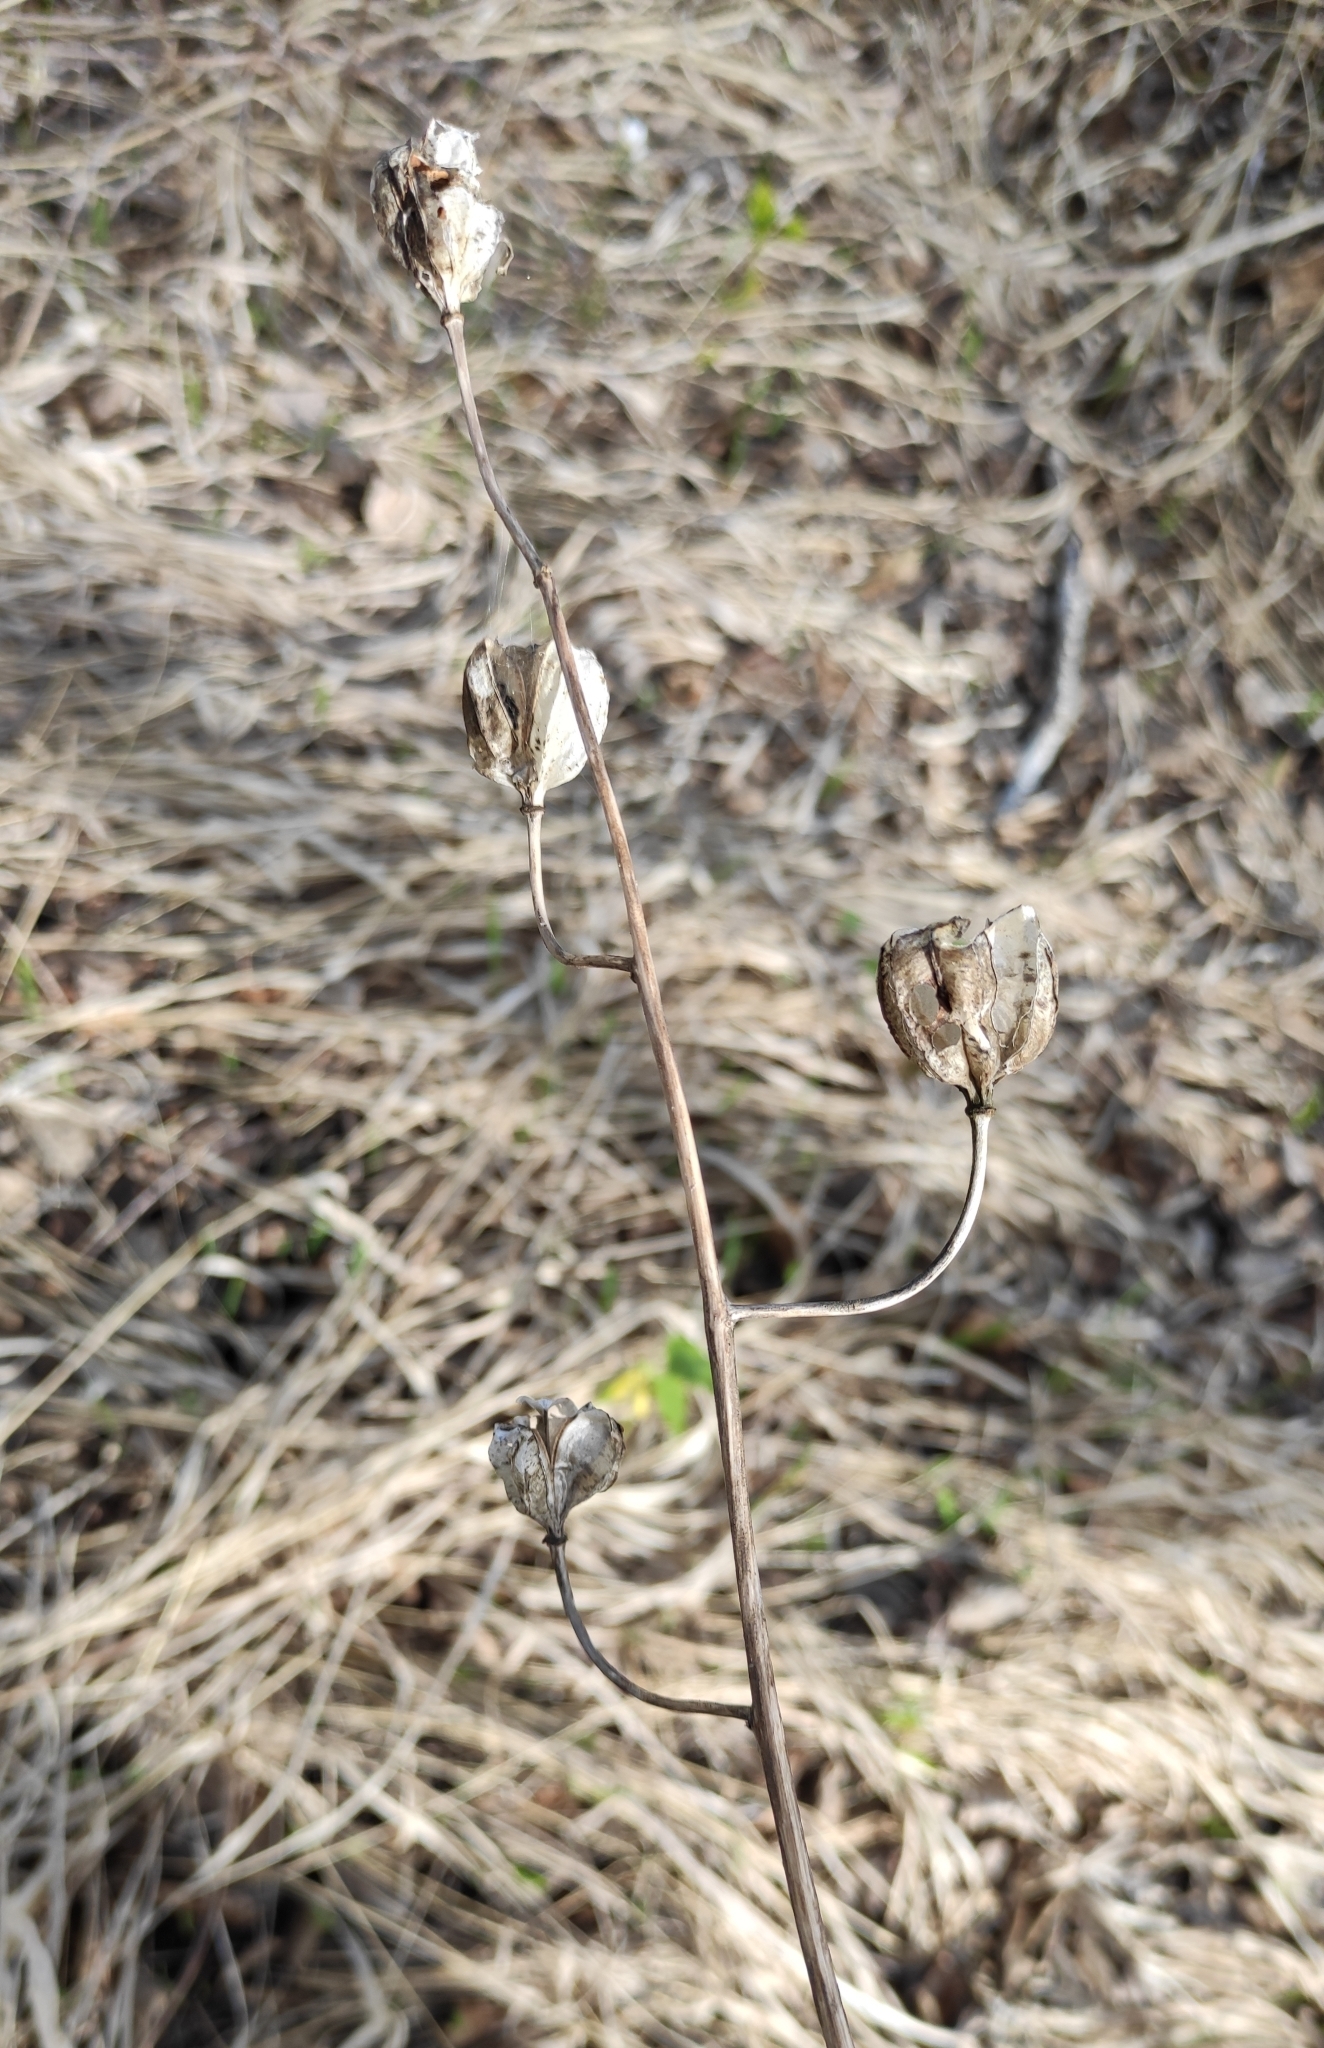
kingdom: Plantae
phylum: Tracheophyta
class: Liliopsida
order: Liliales
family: Liliaceae
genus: Lilium
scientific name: Lilium martagon
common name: Martagon lily
